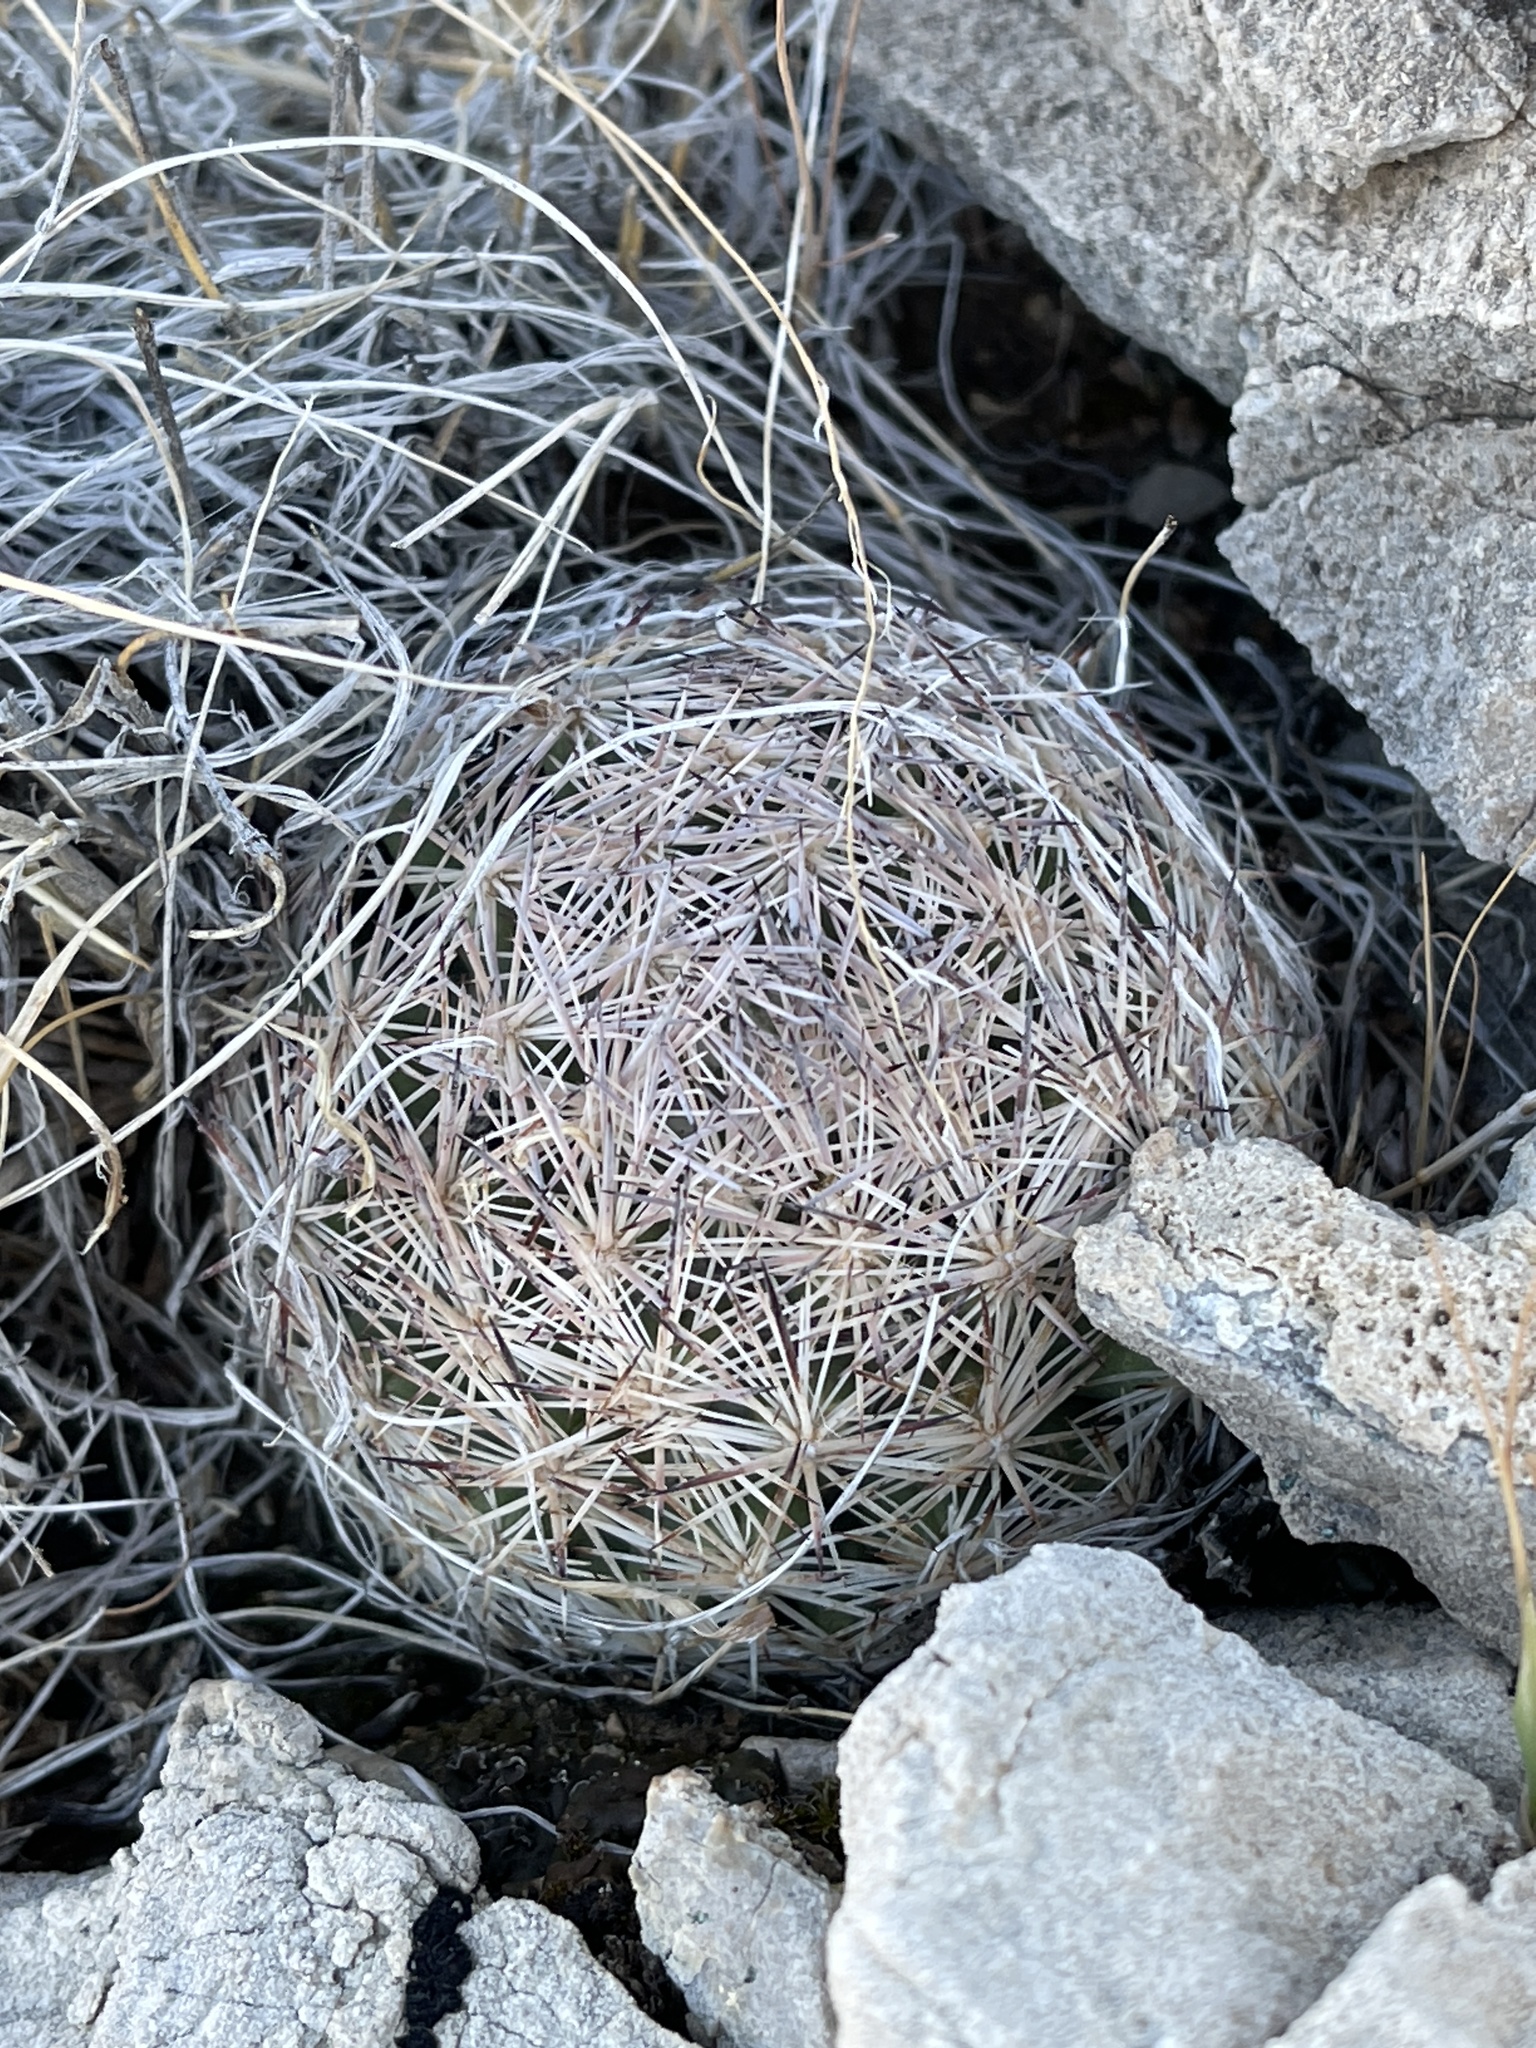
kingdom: Plantae
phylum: Tracheophyta
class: Magnoliopsida
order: Caryophyllales
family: Cactaceae
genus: Pelecyphora
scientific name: Pelecyphora dasyacantha
